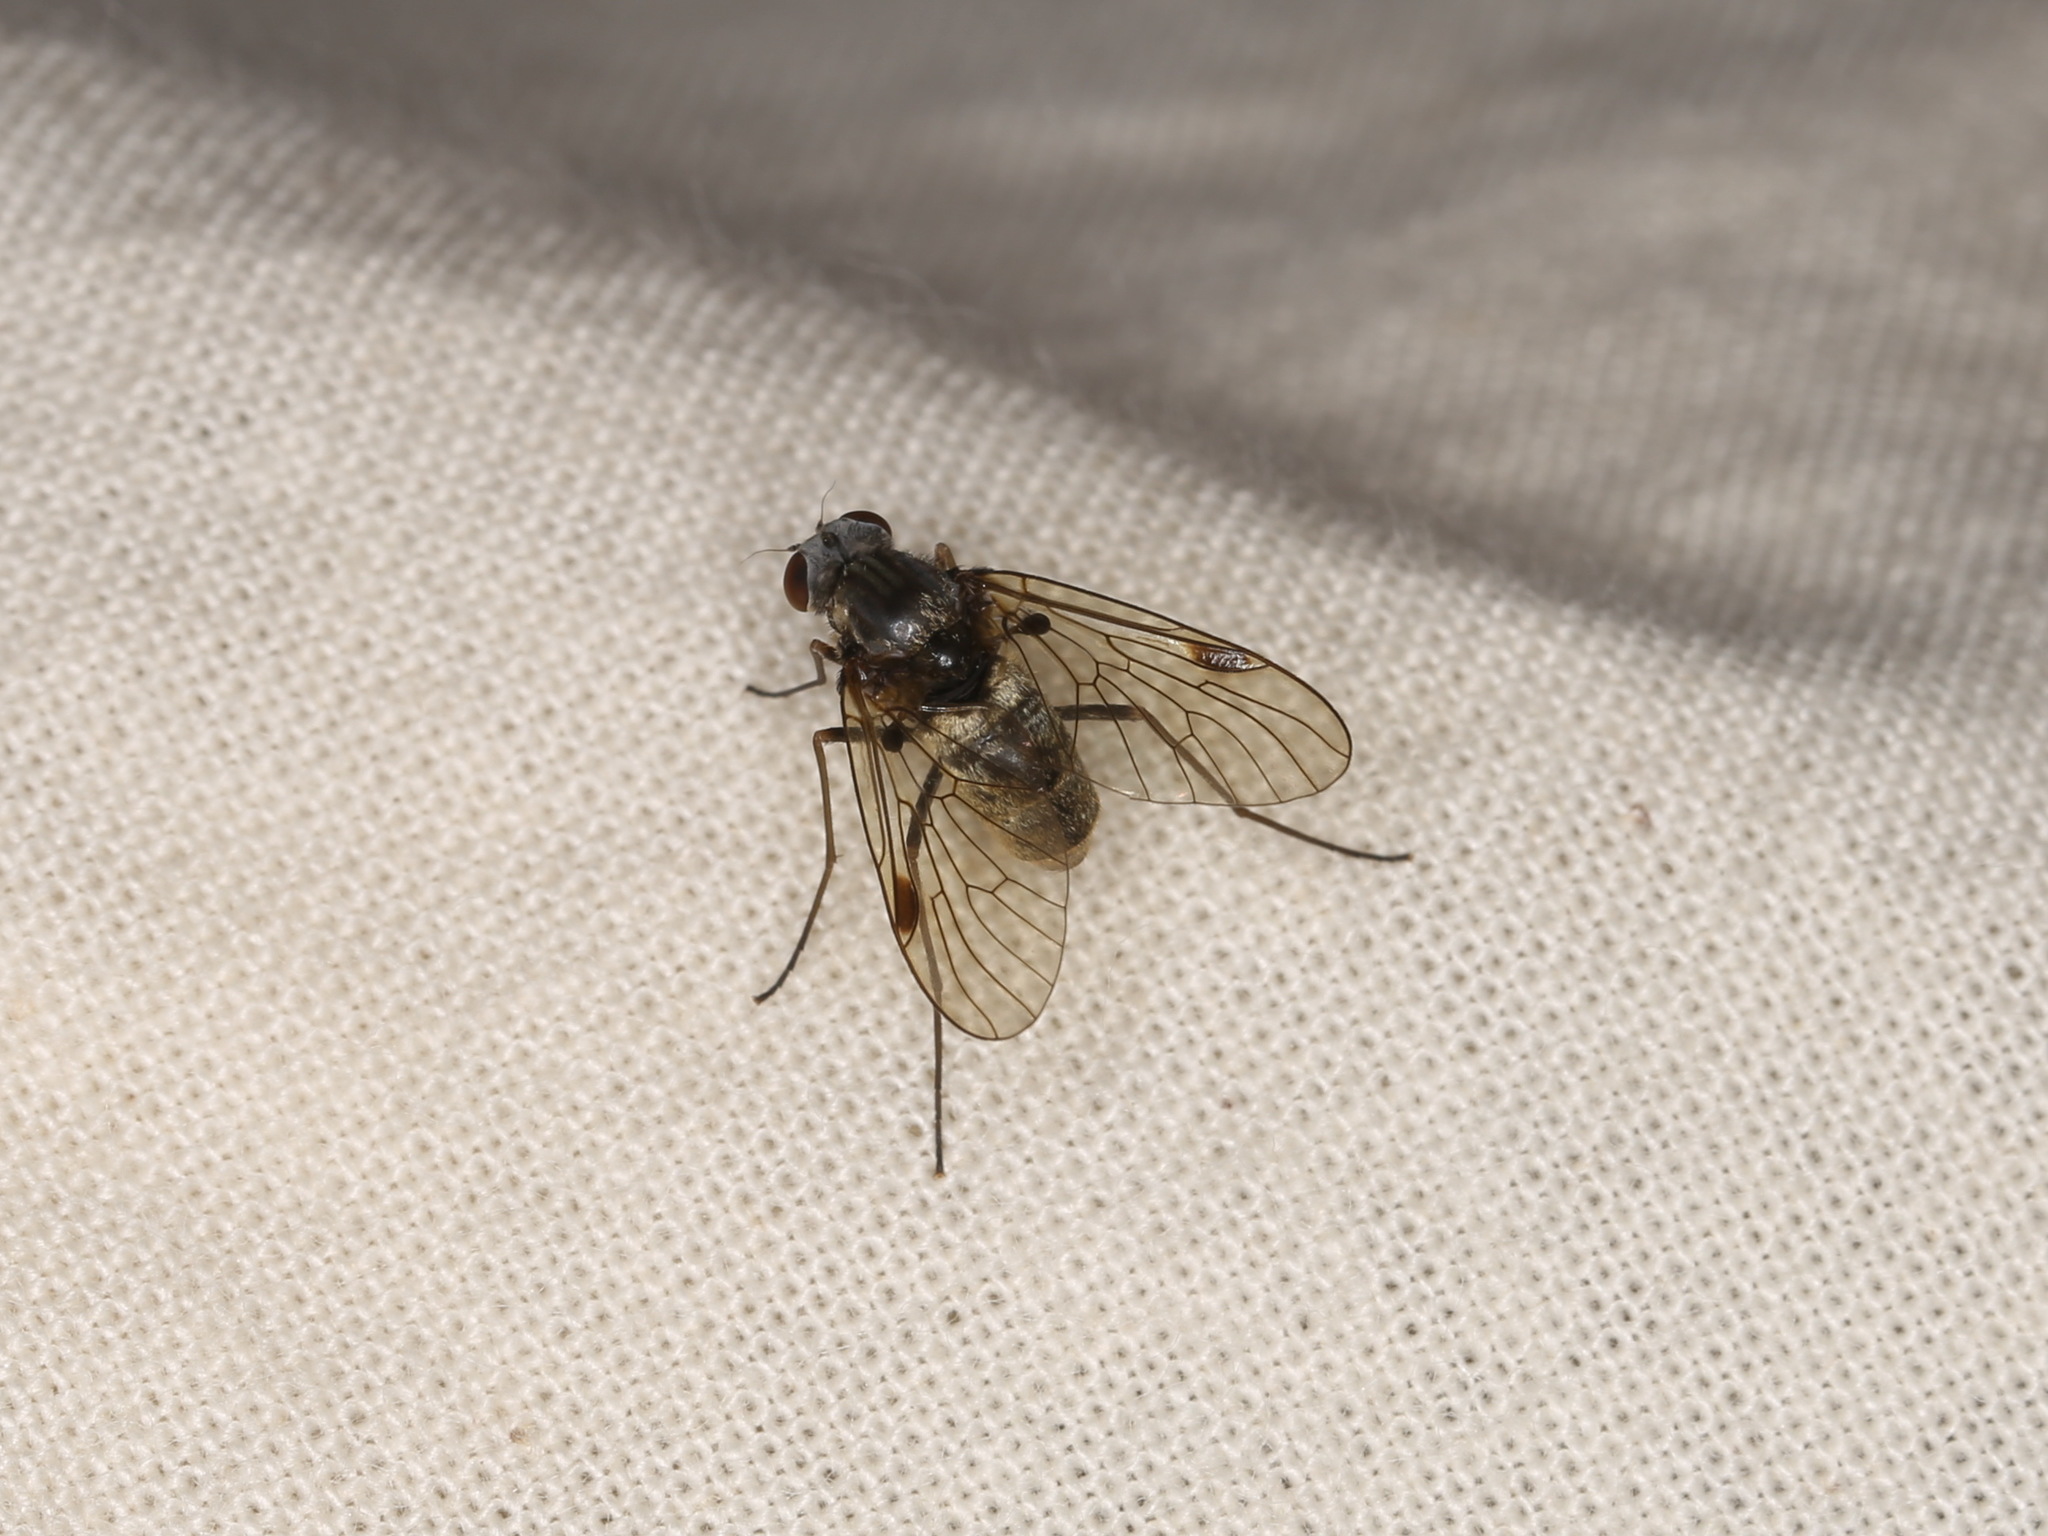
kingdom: Animalia
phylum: Arthropoda
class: Insecta
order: Diptera
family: Rhagionidae
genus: Chrysopilus
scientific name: Chrysopilus cristatus
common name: Black snipefly
